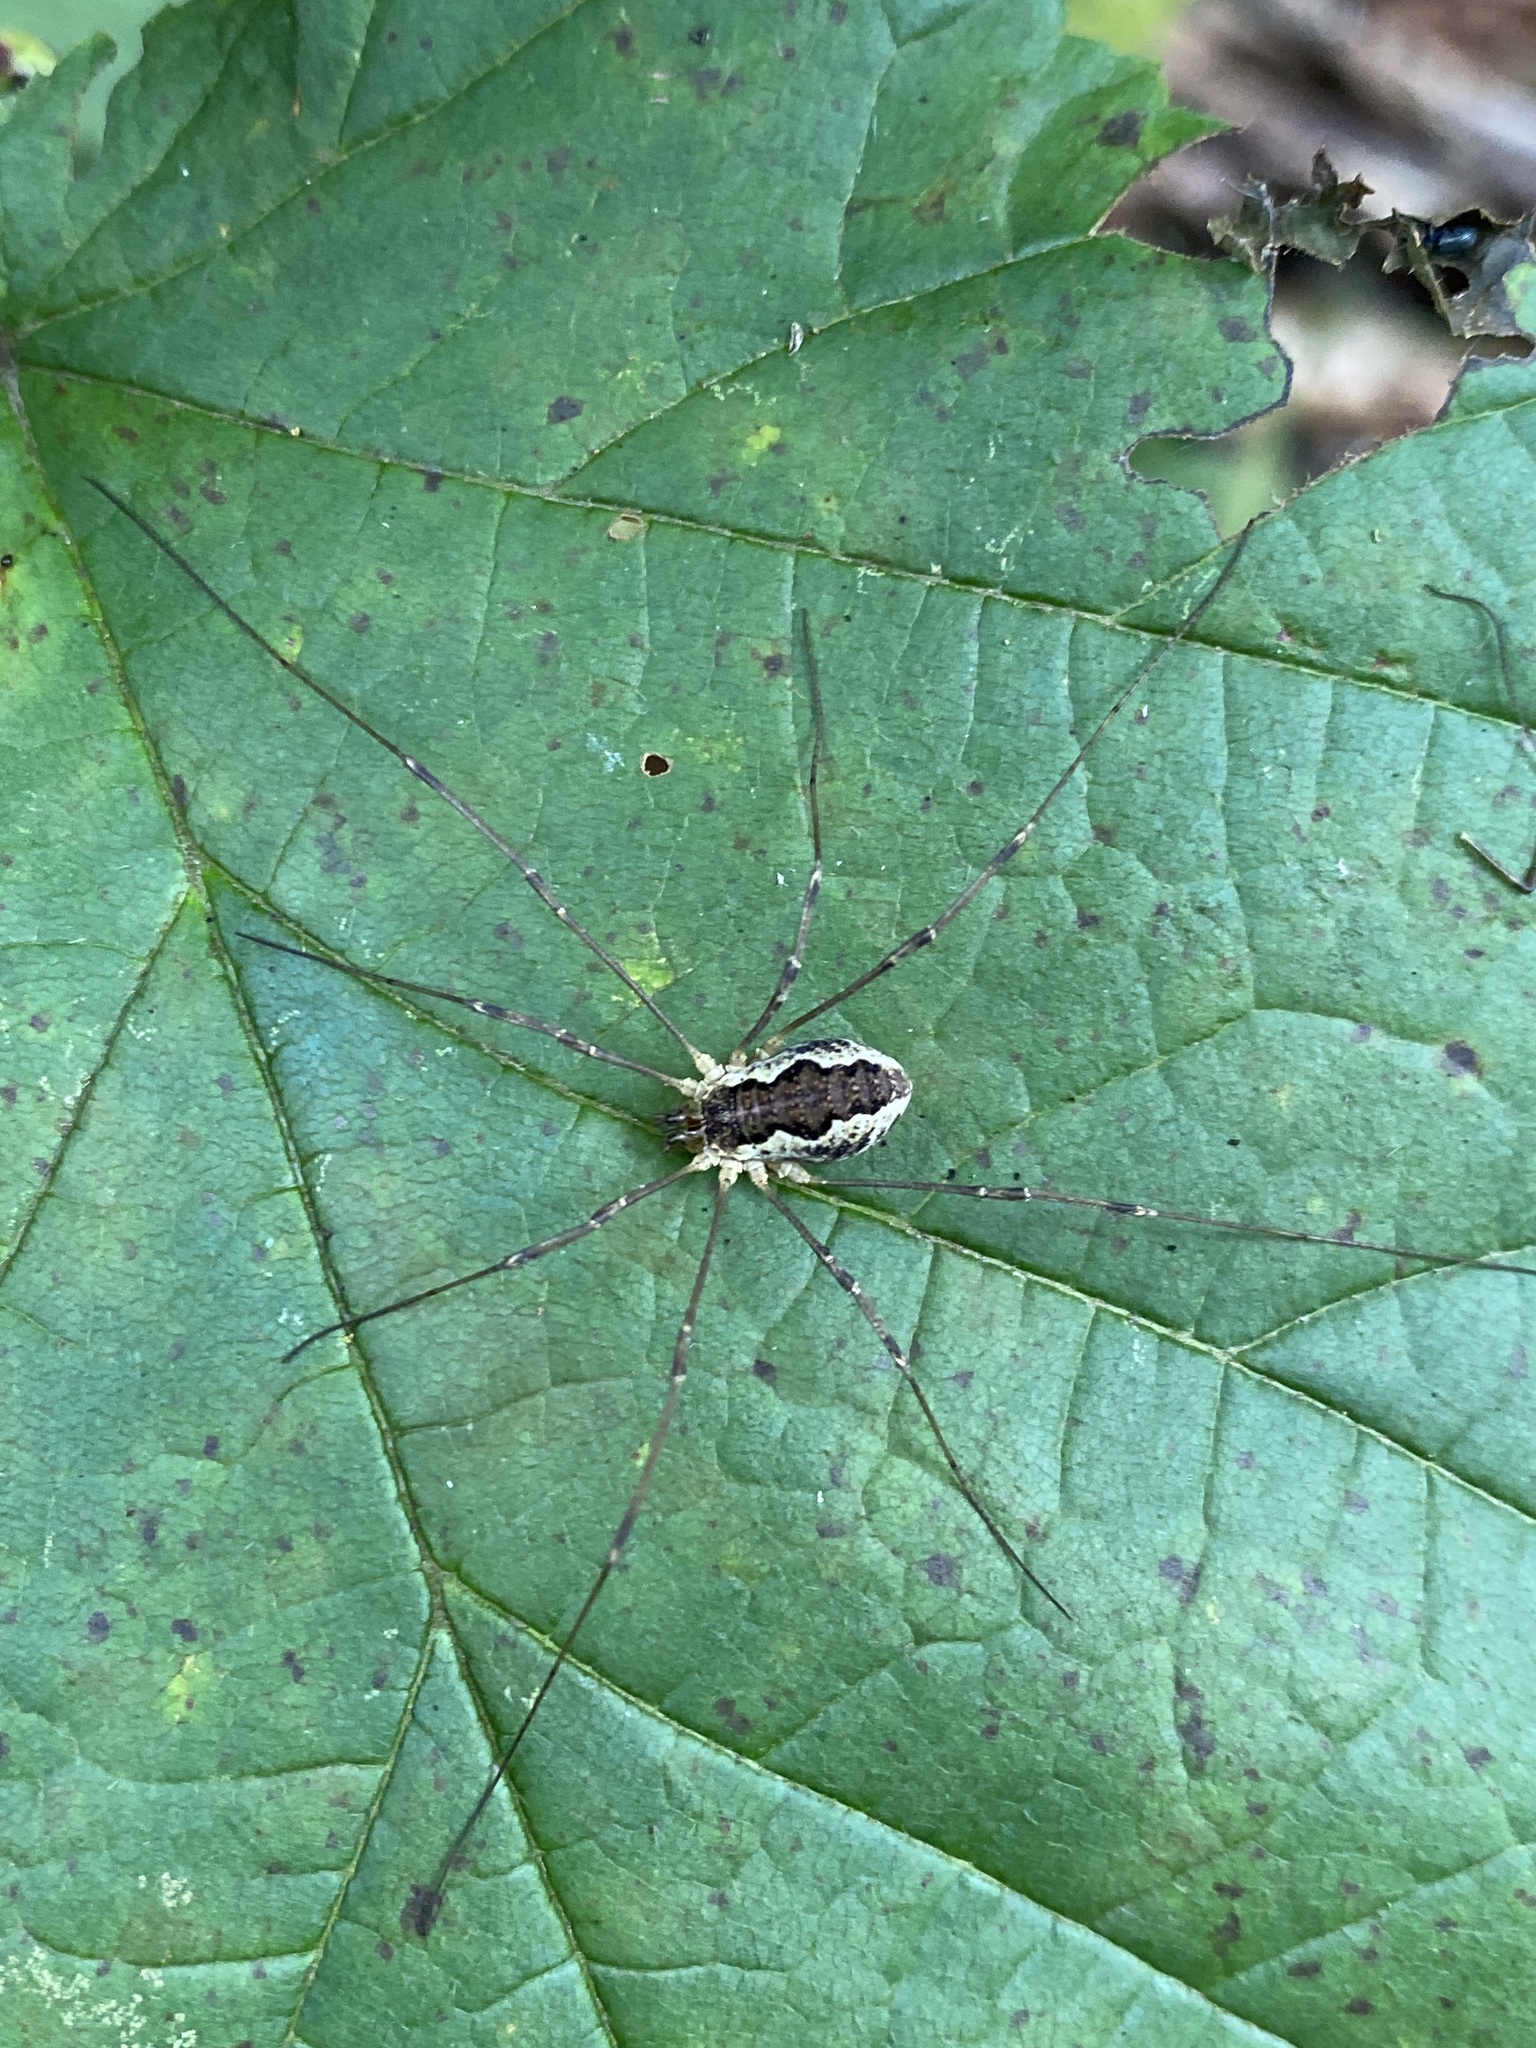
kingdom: Animalia
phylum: Arthropoda
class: Arachnida
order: Opiliones
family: Phalangiidae
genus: Mitopus
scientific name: Mitopus morio
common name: Saddleback harvestman
